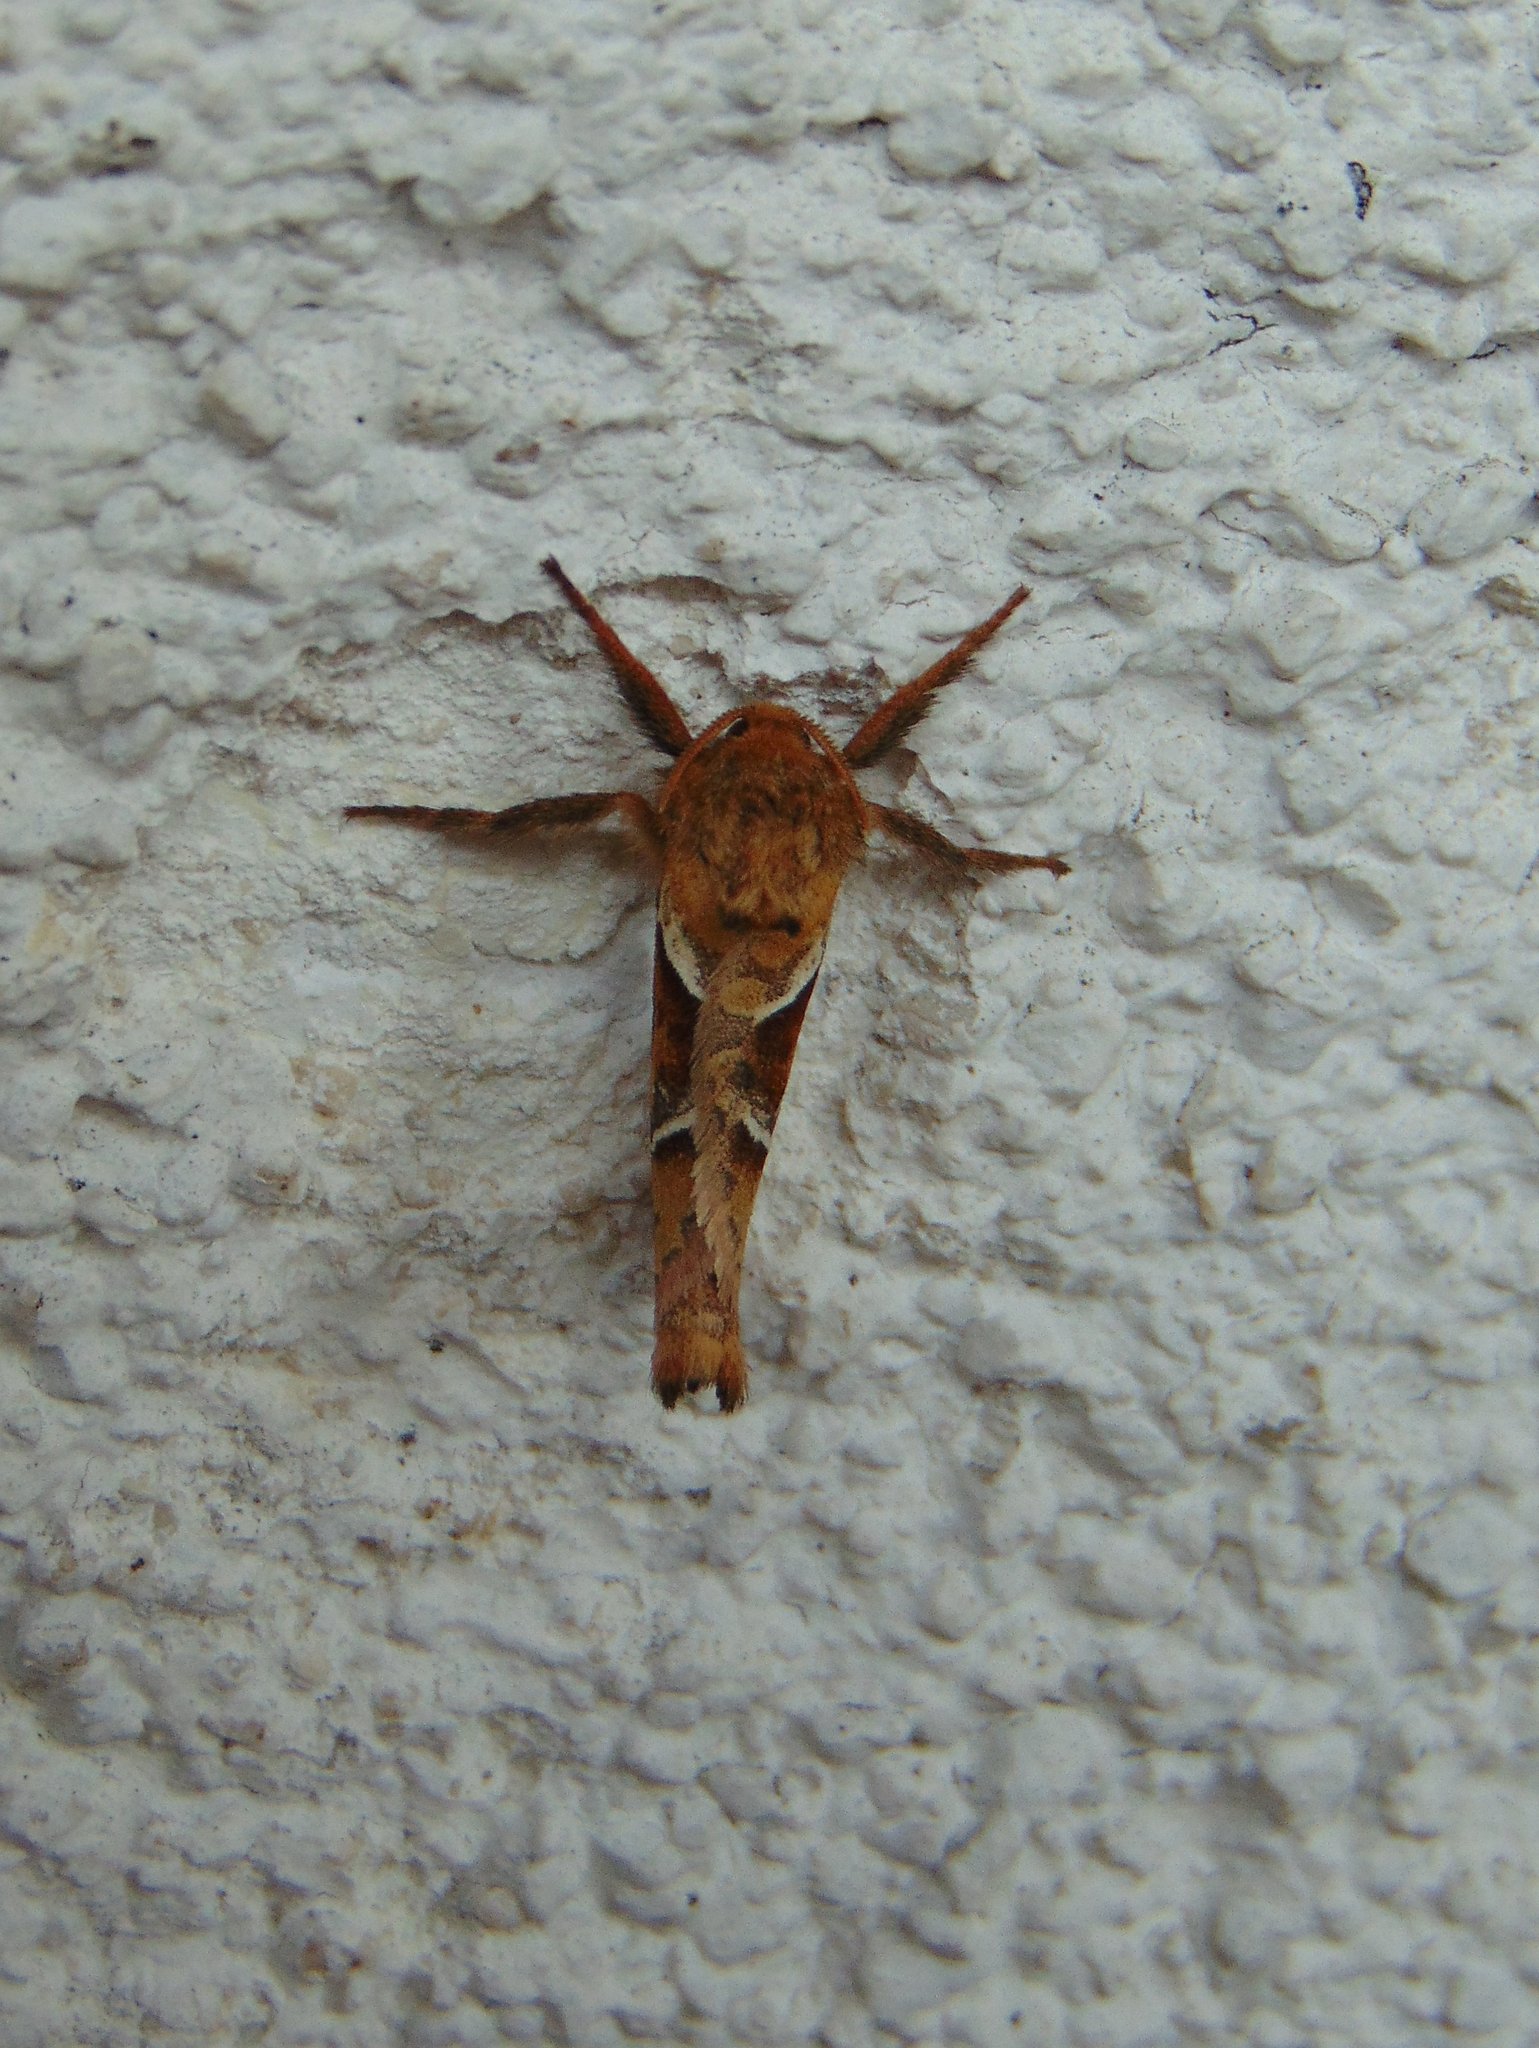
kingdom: Animalia
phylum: Arthropoda
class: Insecta
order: Lepidoptera
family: Hepialidae
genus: Triodia
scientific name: Triodia sylvina
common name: Orange swift
